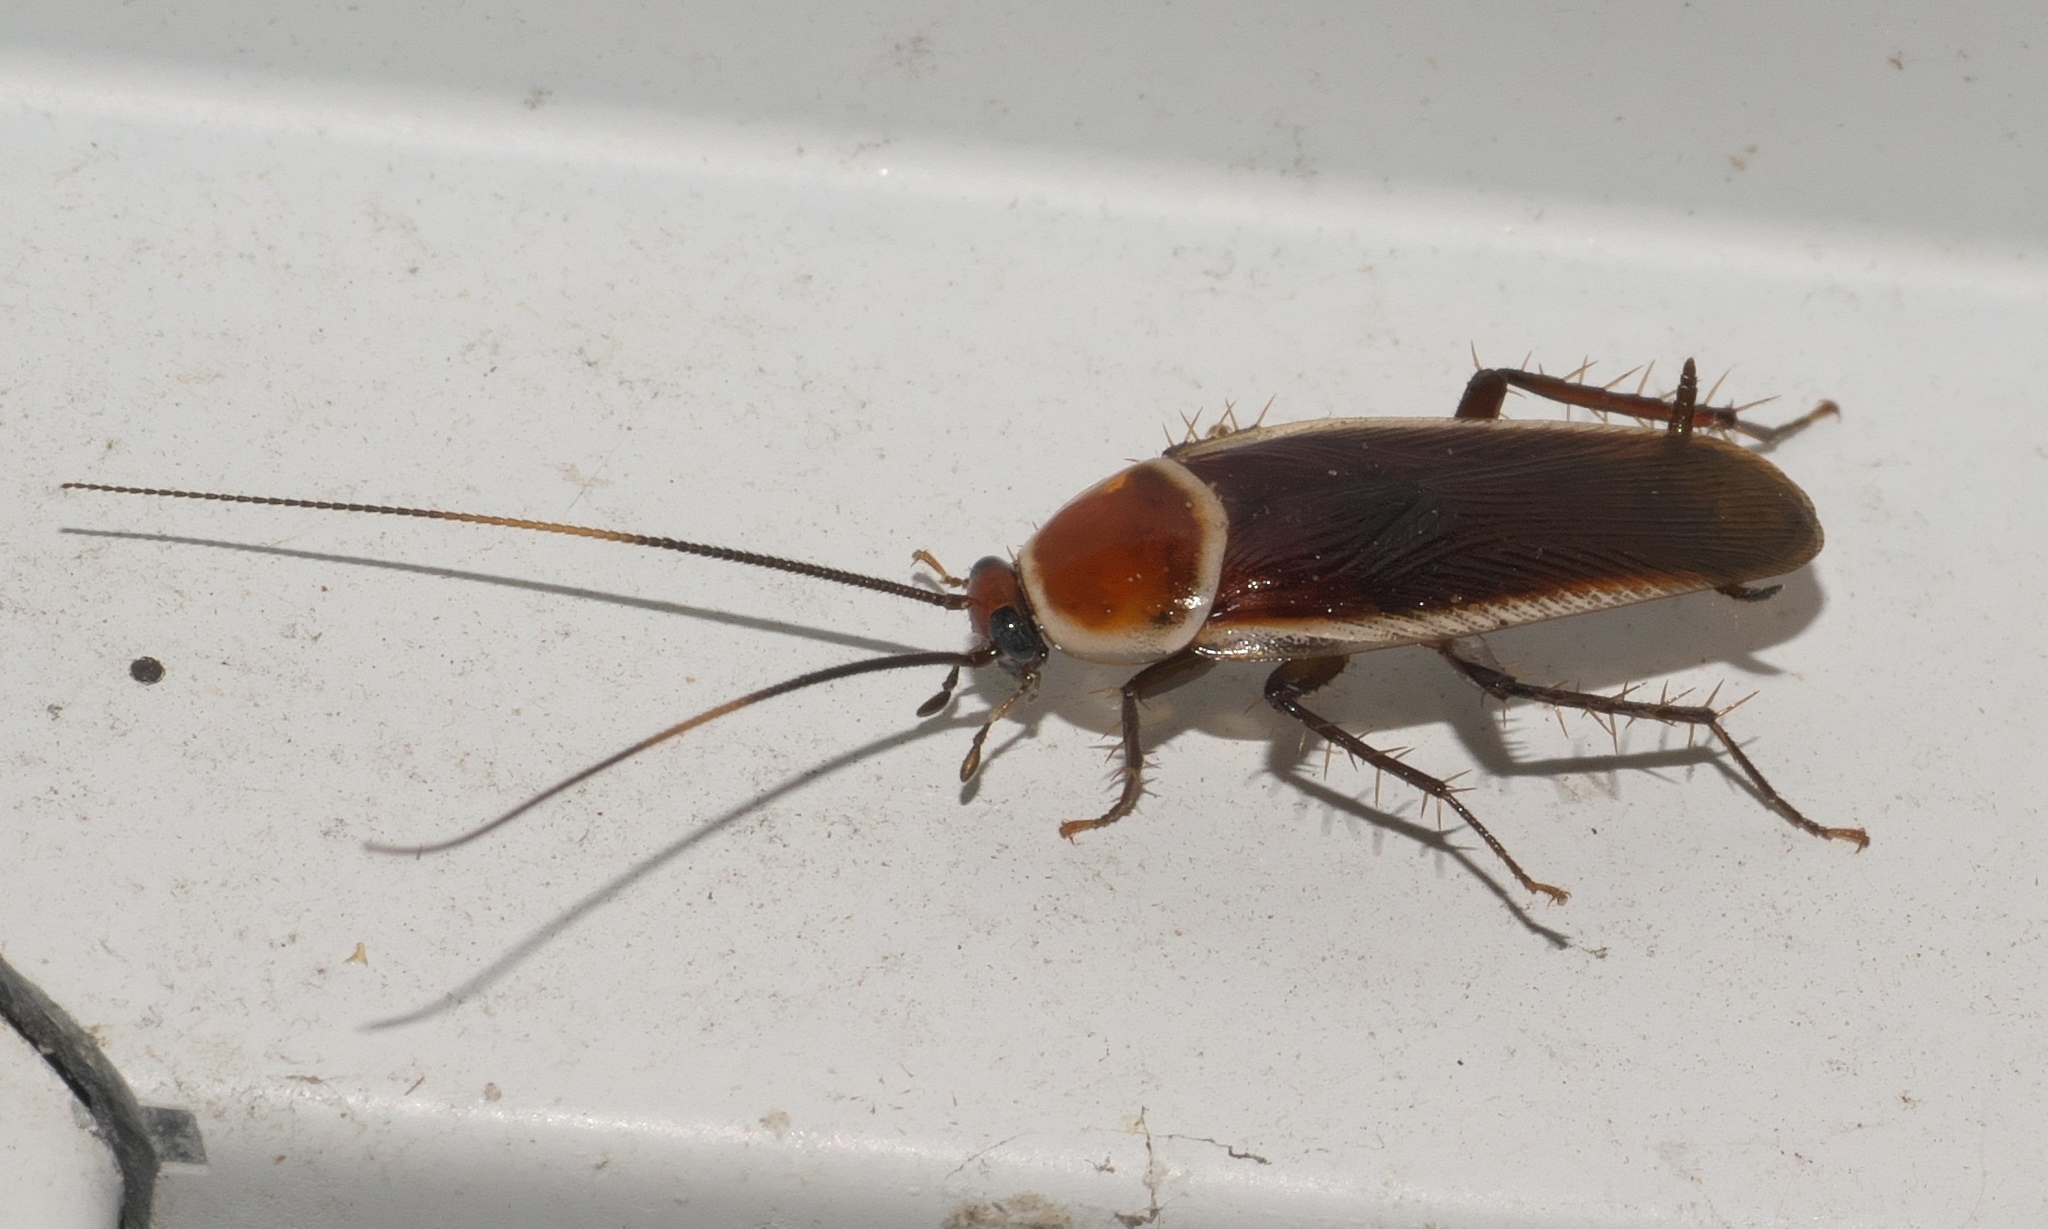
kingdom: Animalia
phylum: Arthropoda
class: Insecta
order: Blattodea
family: Ectobiidae
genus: Pseudomops
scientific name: Pseudomops septentrionalis
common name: Pale-bordered field cockroach
